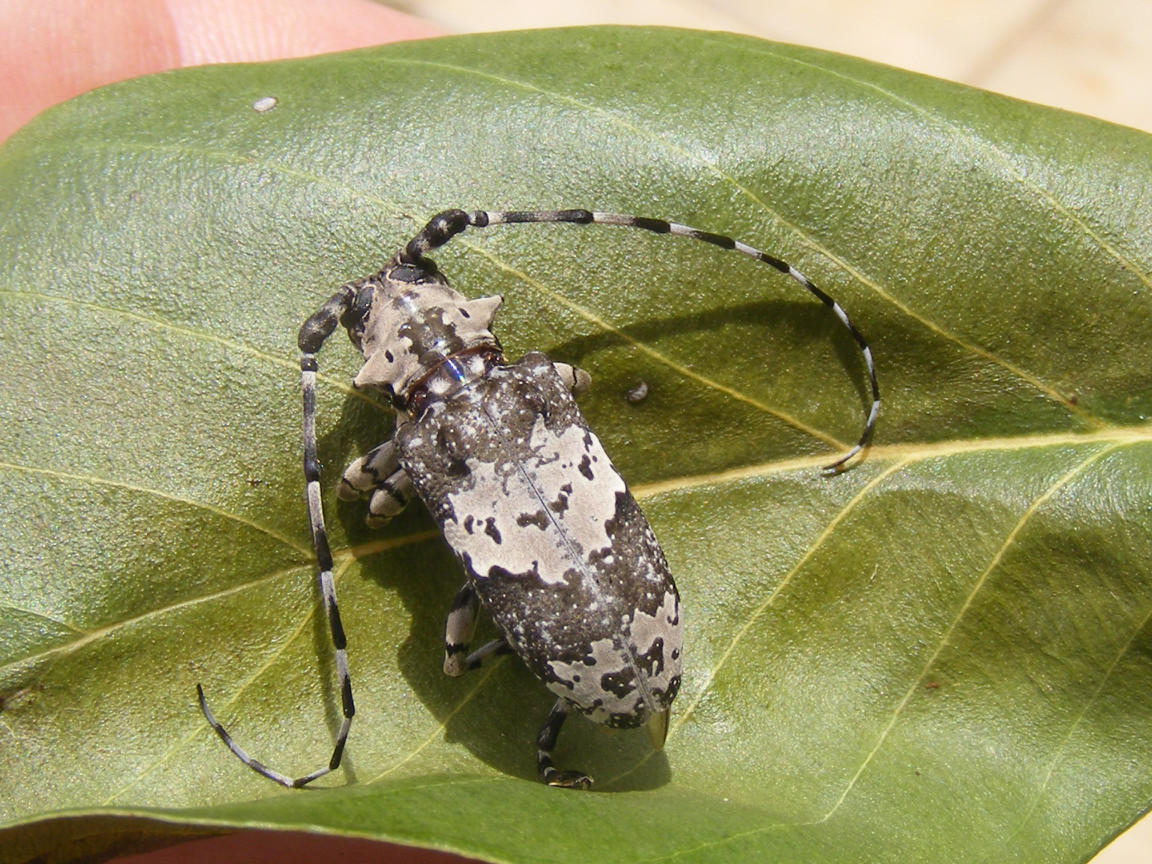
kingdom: Animalia
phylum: Arthropoda
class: Insecta
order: Coleoptera
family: Cerambycidae
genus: Lasiopezus
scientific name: Lasiopezus nigromaculatus
